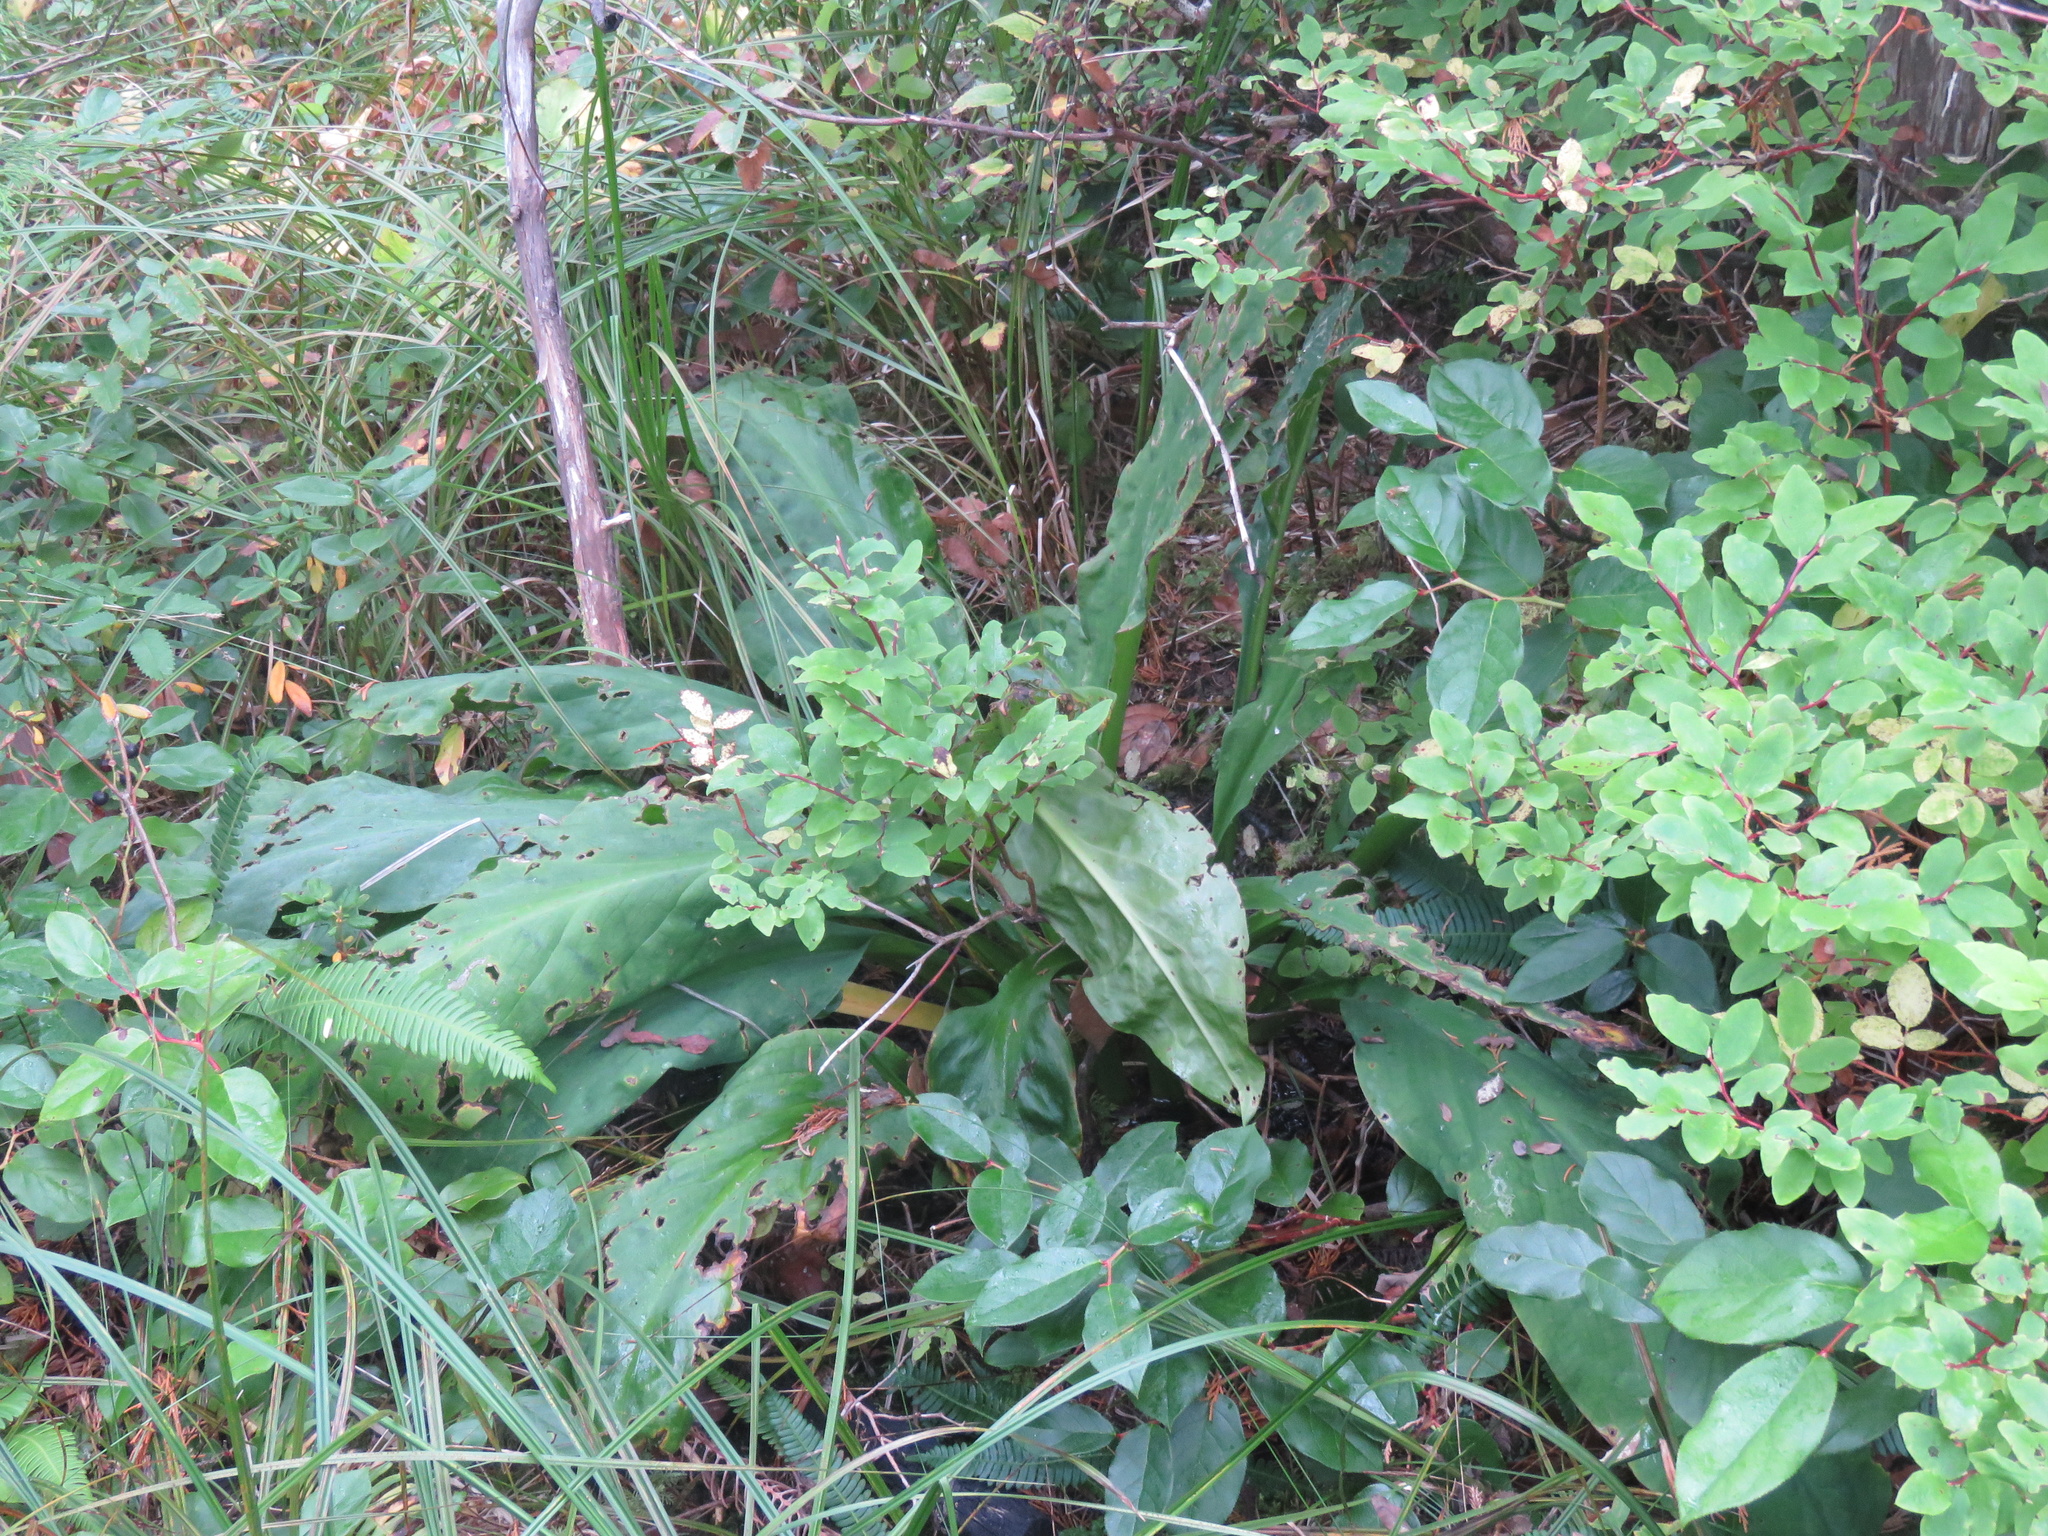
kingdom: Plantae
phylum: Tracheophyta
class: Liliopsida
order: Alismatales
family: Araceae
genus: Lysichiton
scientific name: Lysichiton americanus
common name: American skunk cabbage
